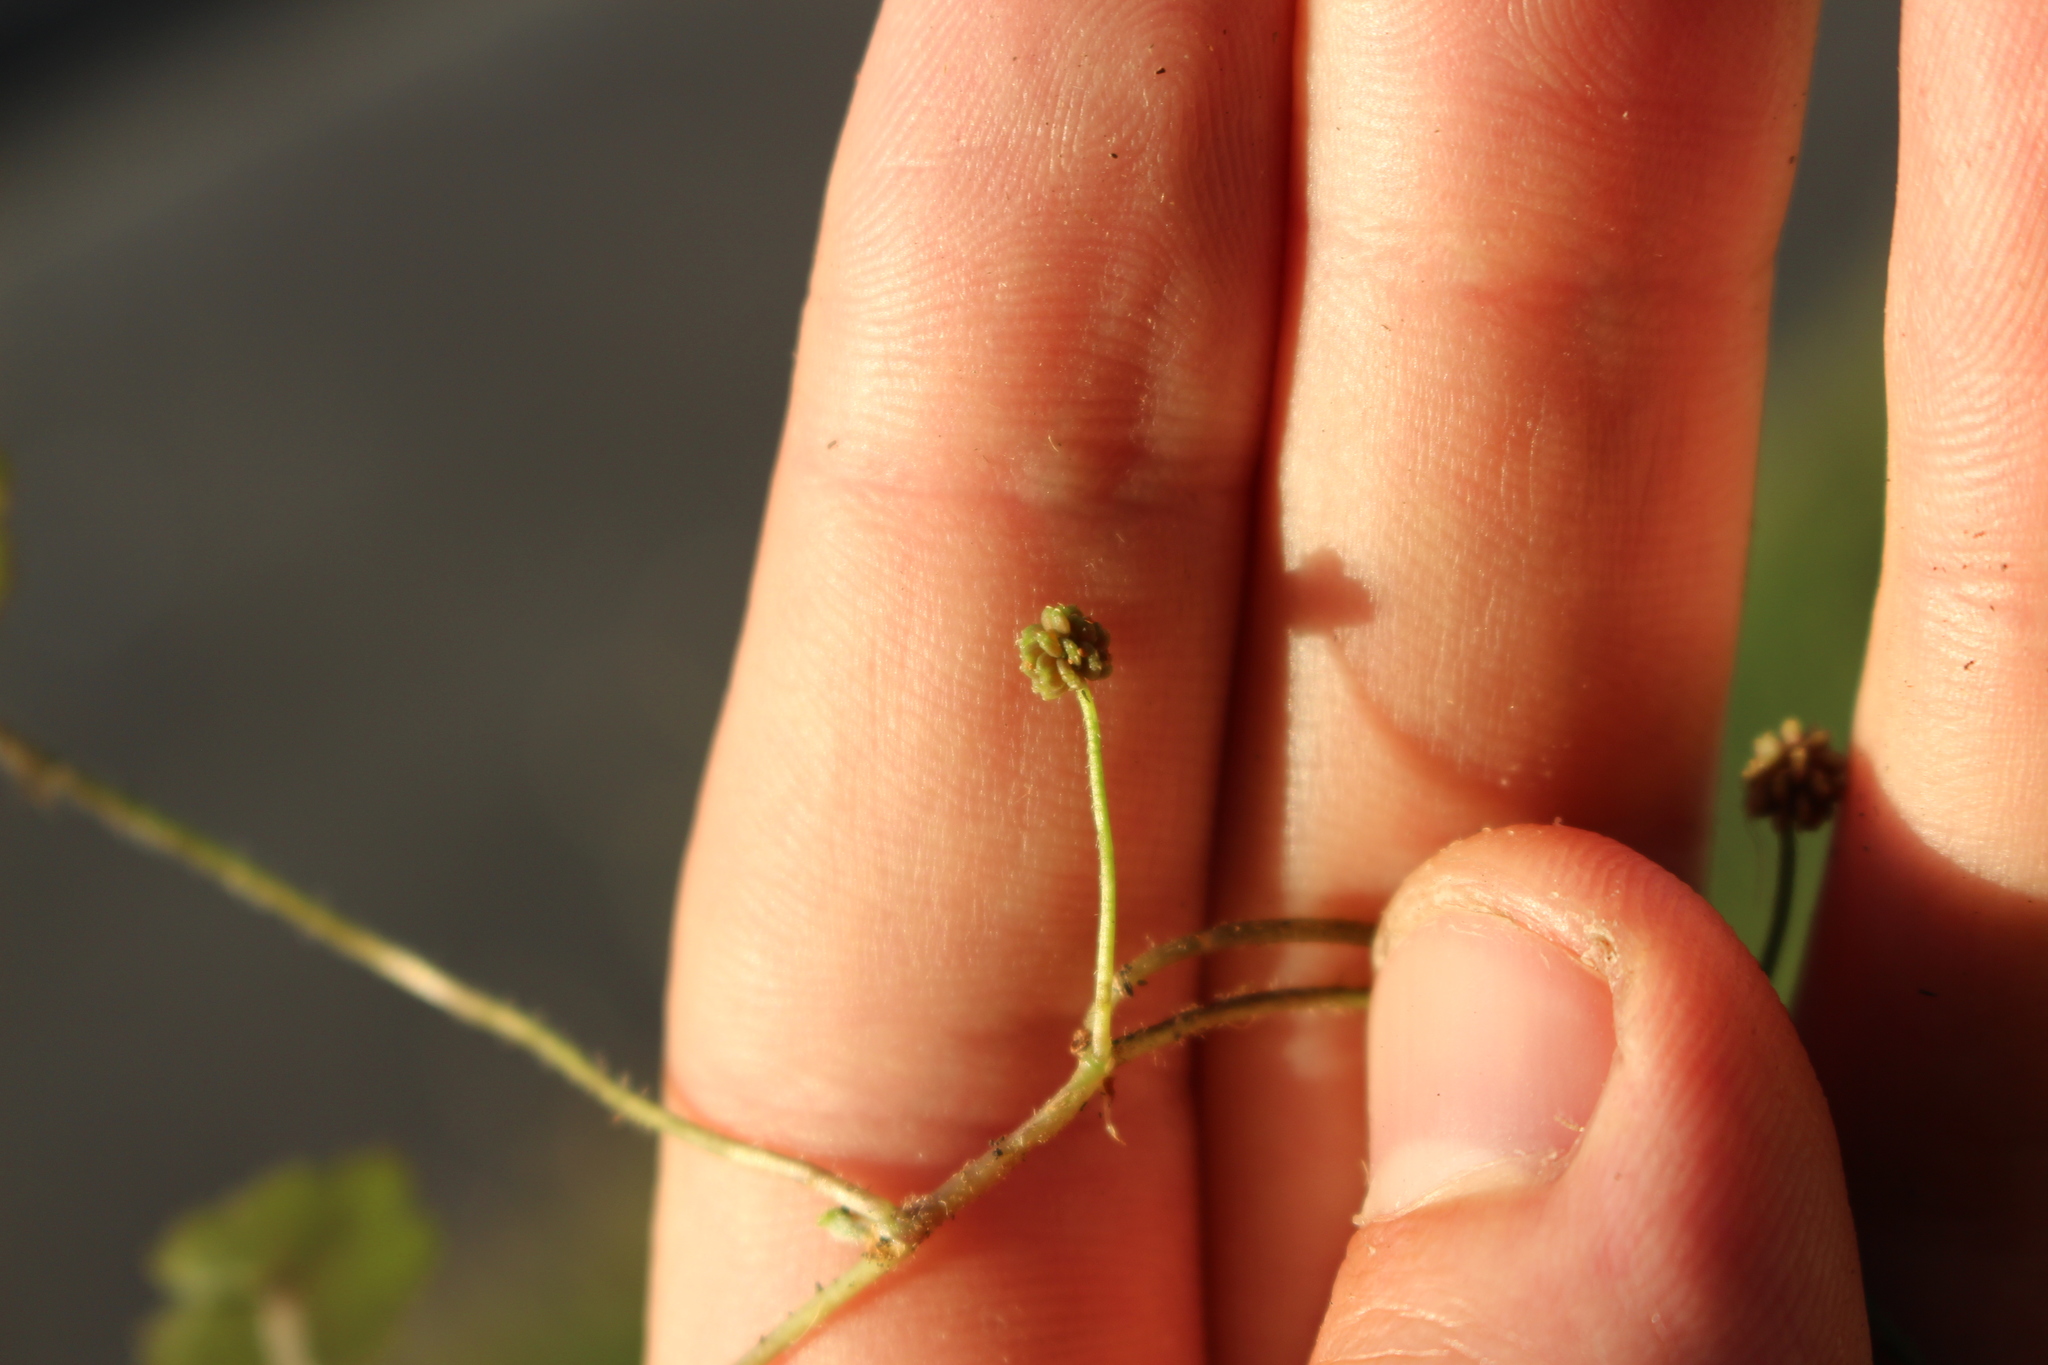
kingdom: Plantae
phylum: Tracheophyta
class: Magnoliopsida
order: Apiales
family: Araliaceae
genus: Hydrocotyle
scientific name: Hydrocotyle moschata
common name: Hairy pennywort
